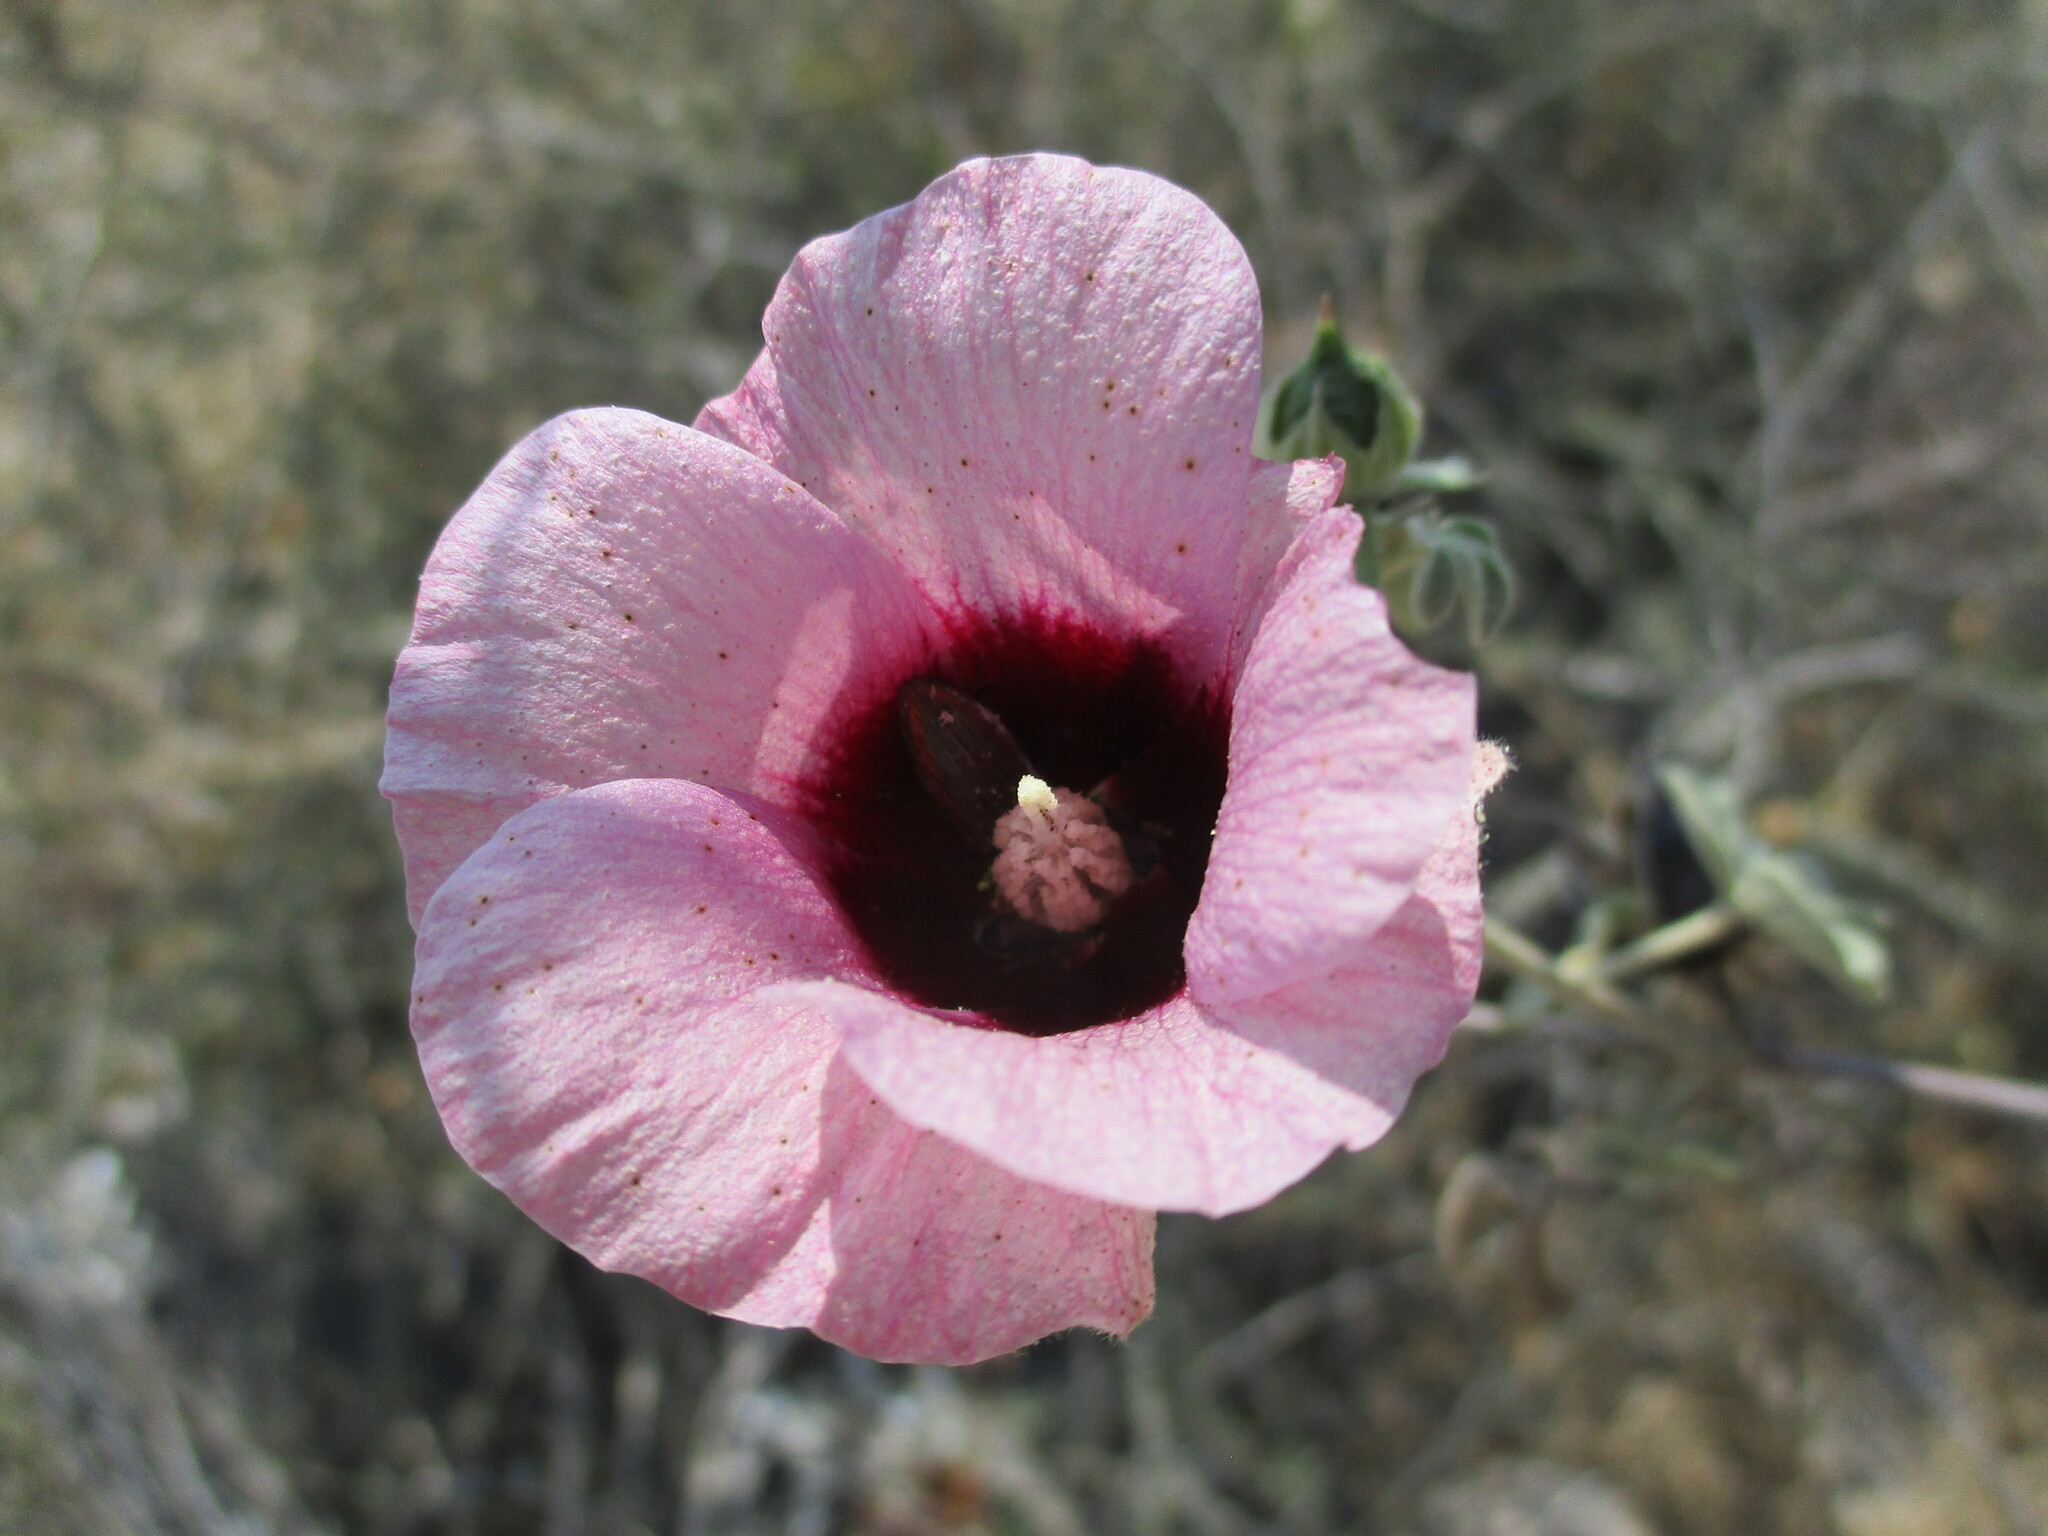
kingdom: Plantae
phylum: Tracheophyta
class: Magnoliopsida
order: Malvales
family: Malvaceae
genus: Gossypium
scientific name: Gossypium anomalum
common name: African wild cotton
